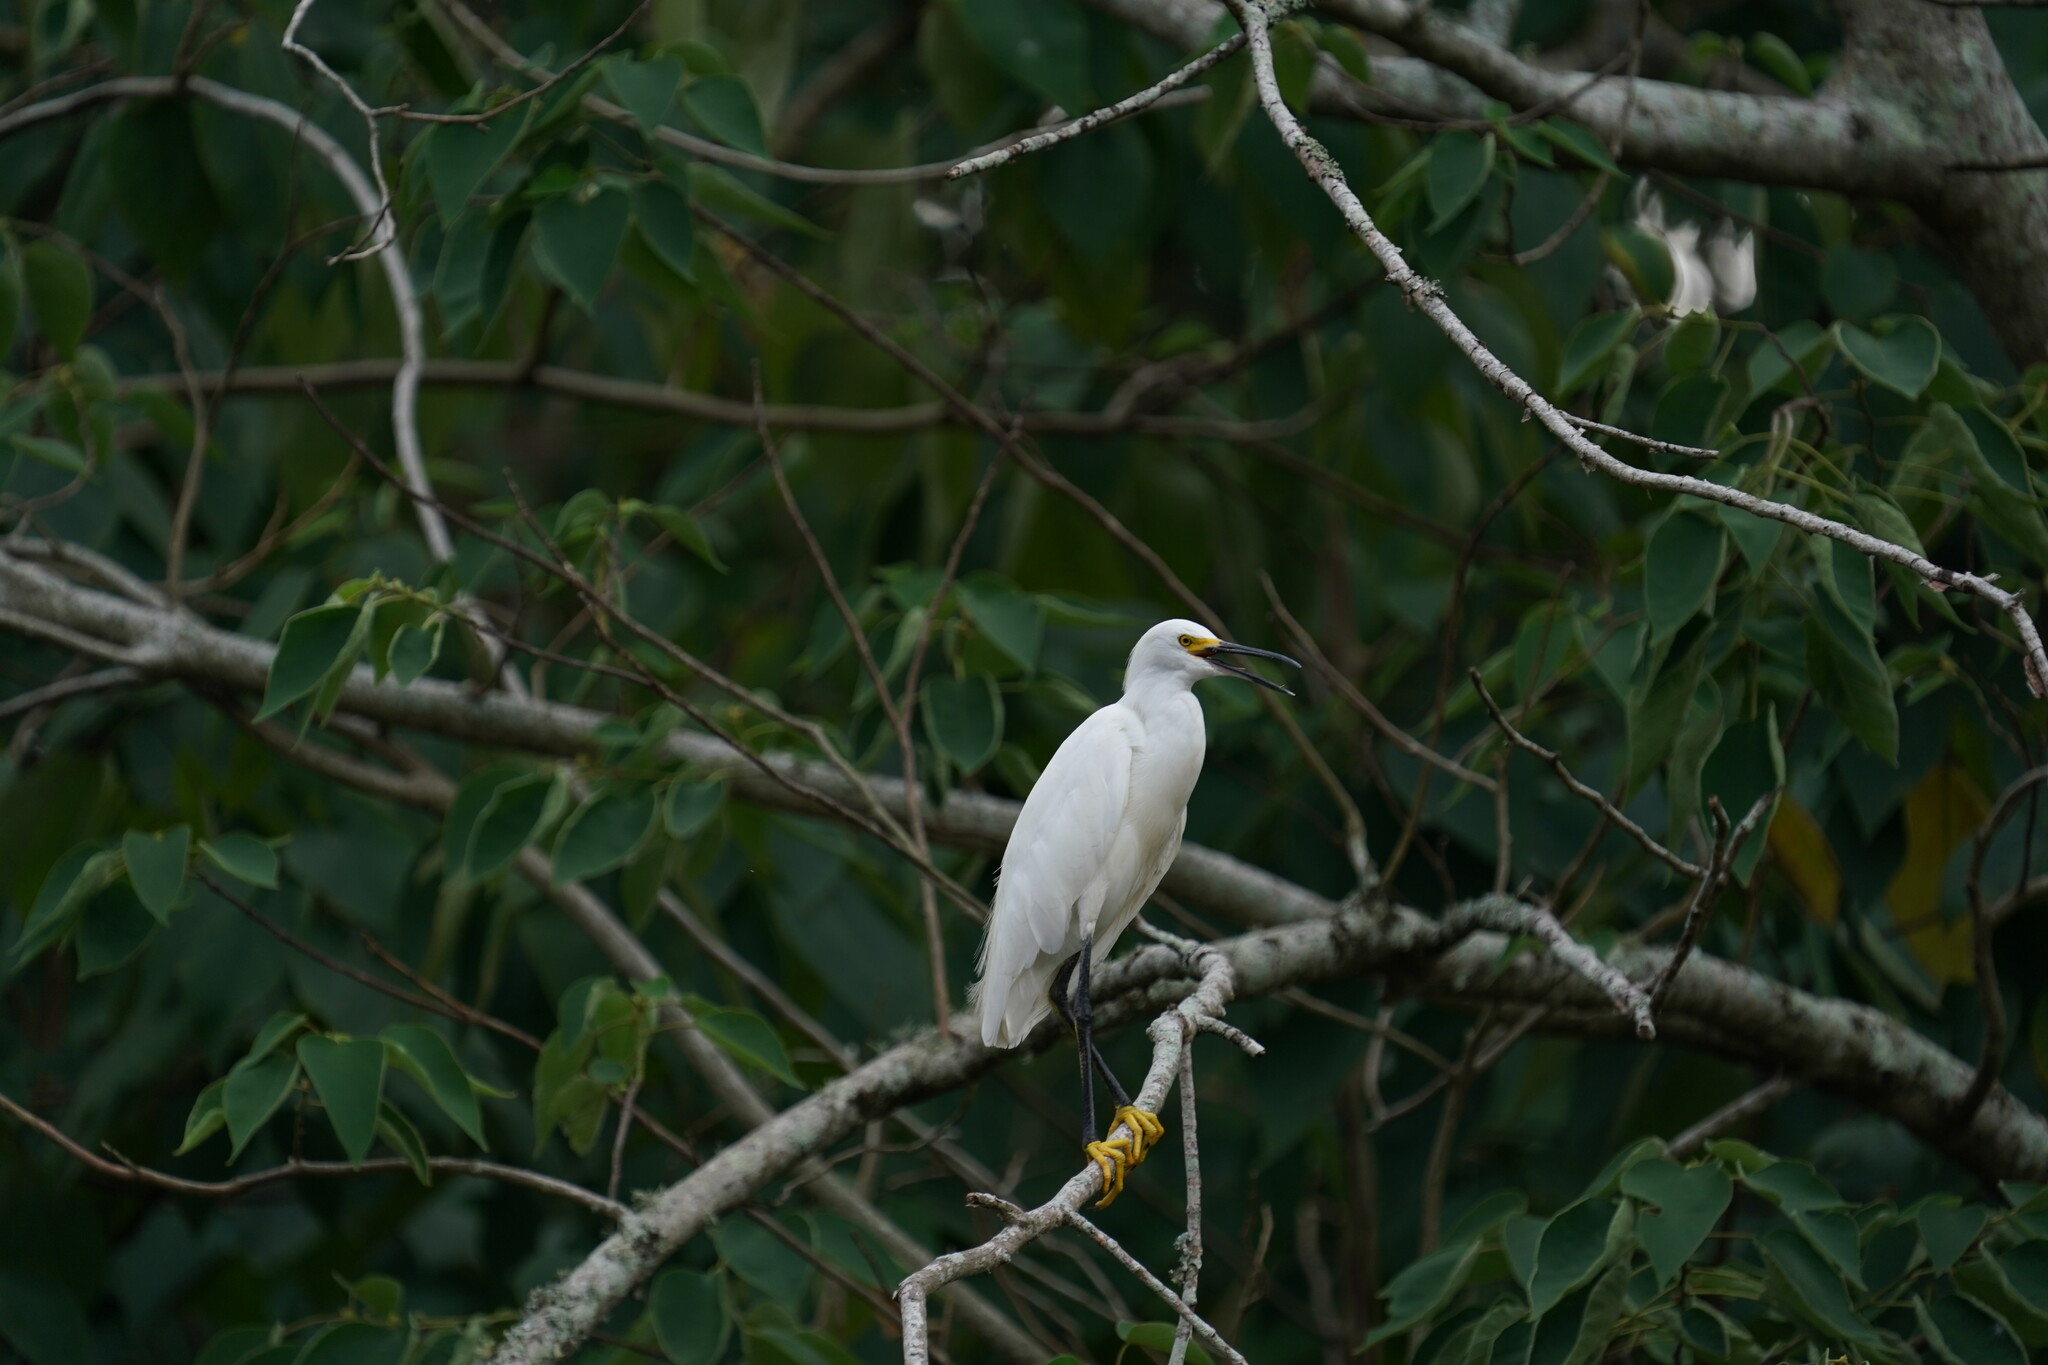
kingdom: Animalia
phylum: Chordata
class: Aves
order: Pelecaniformes
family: Ardeidae
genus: Egretta
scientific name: Egretta thula
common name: Snowy egret
